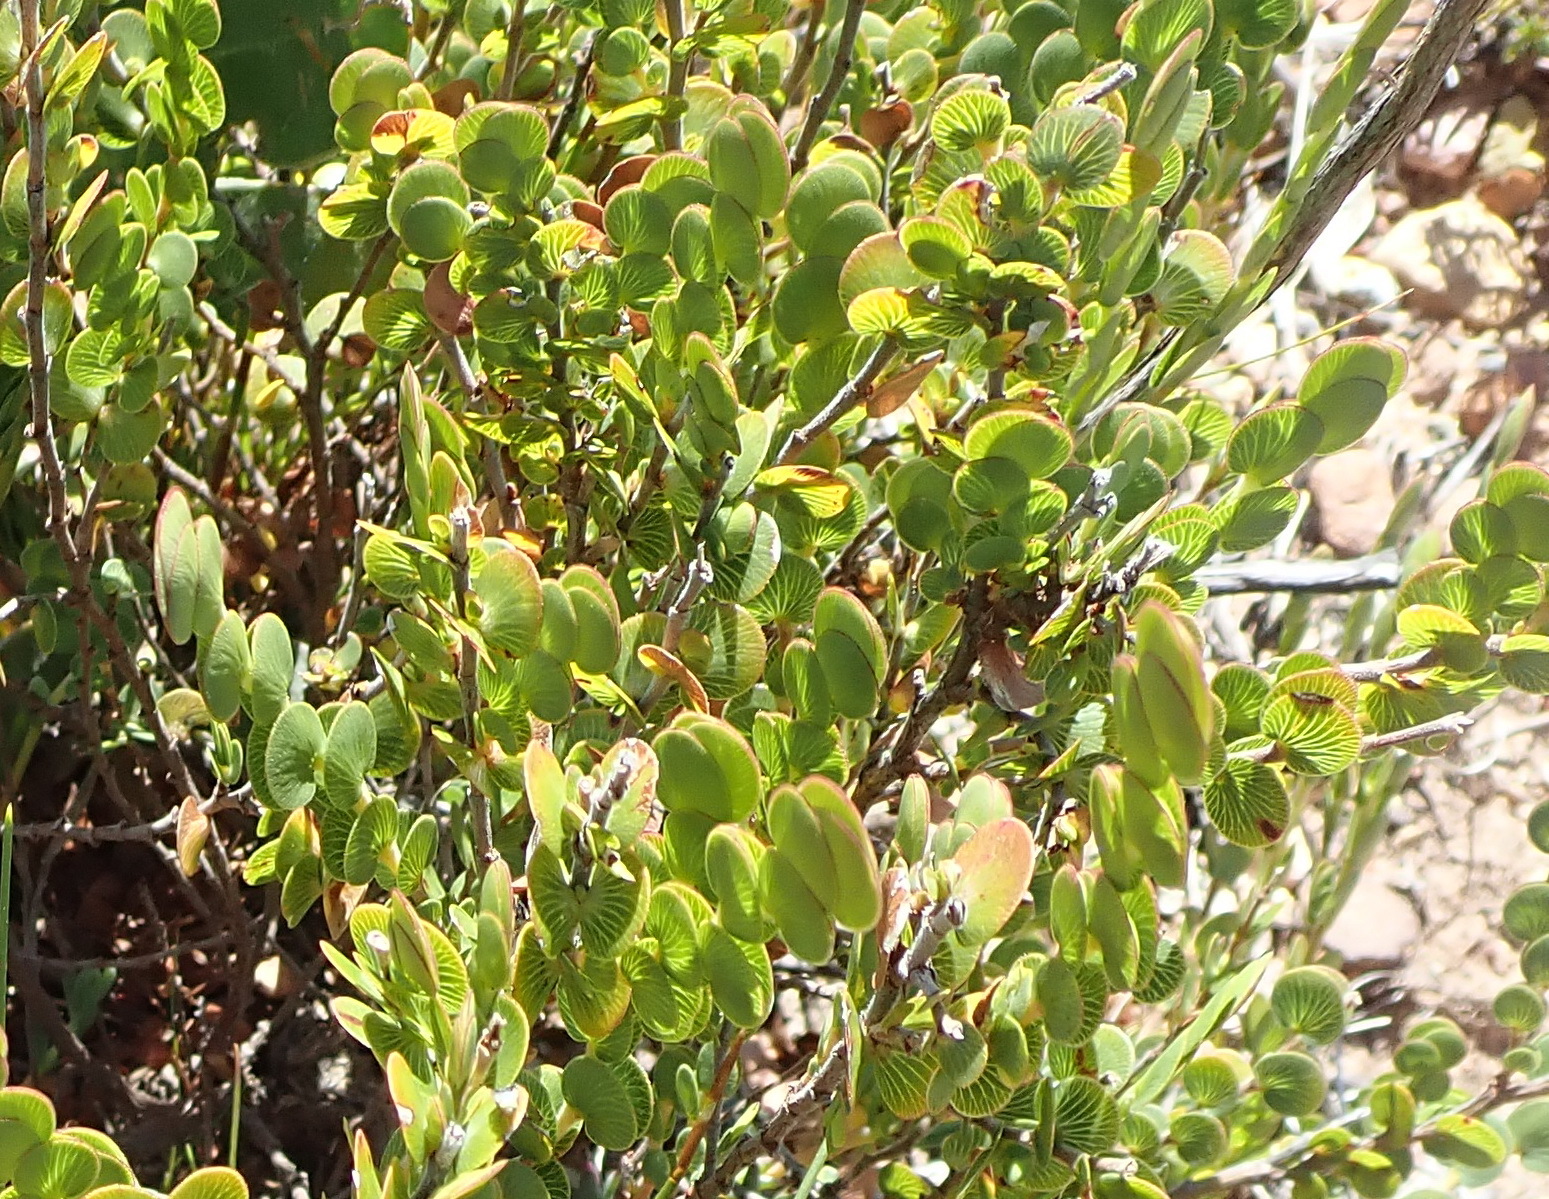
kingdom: Plantae
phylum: Tracheophyta
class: Magnoliopsida
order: Rosales
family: Rosaceae
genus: Cliffortia
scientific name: Cliffortia pulchella
